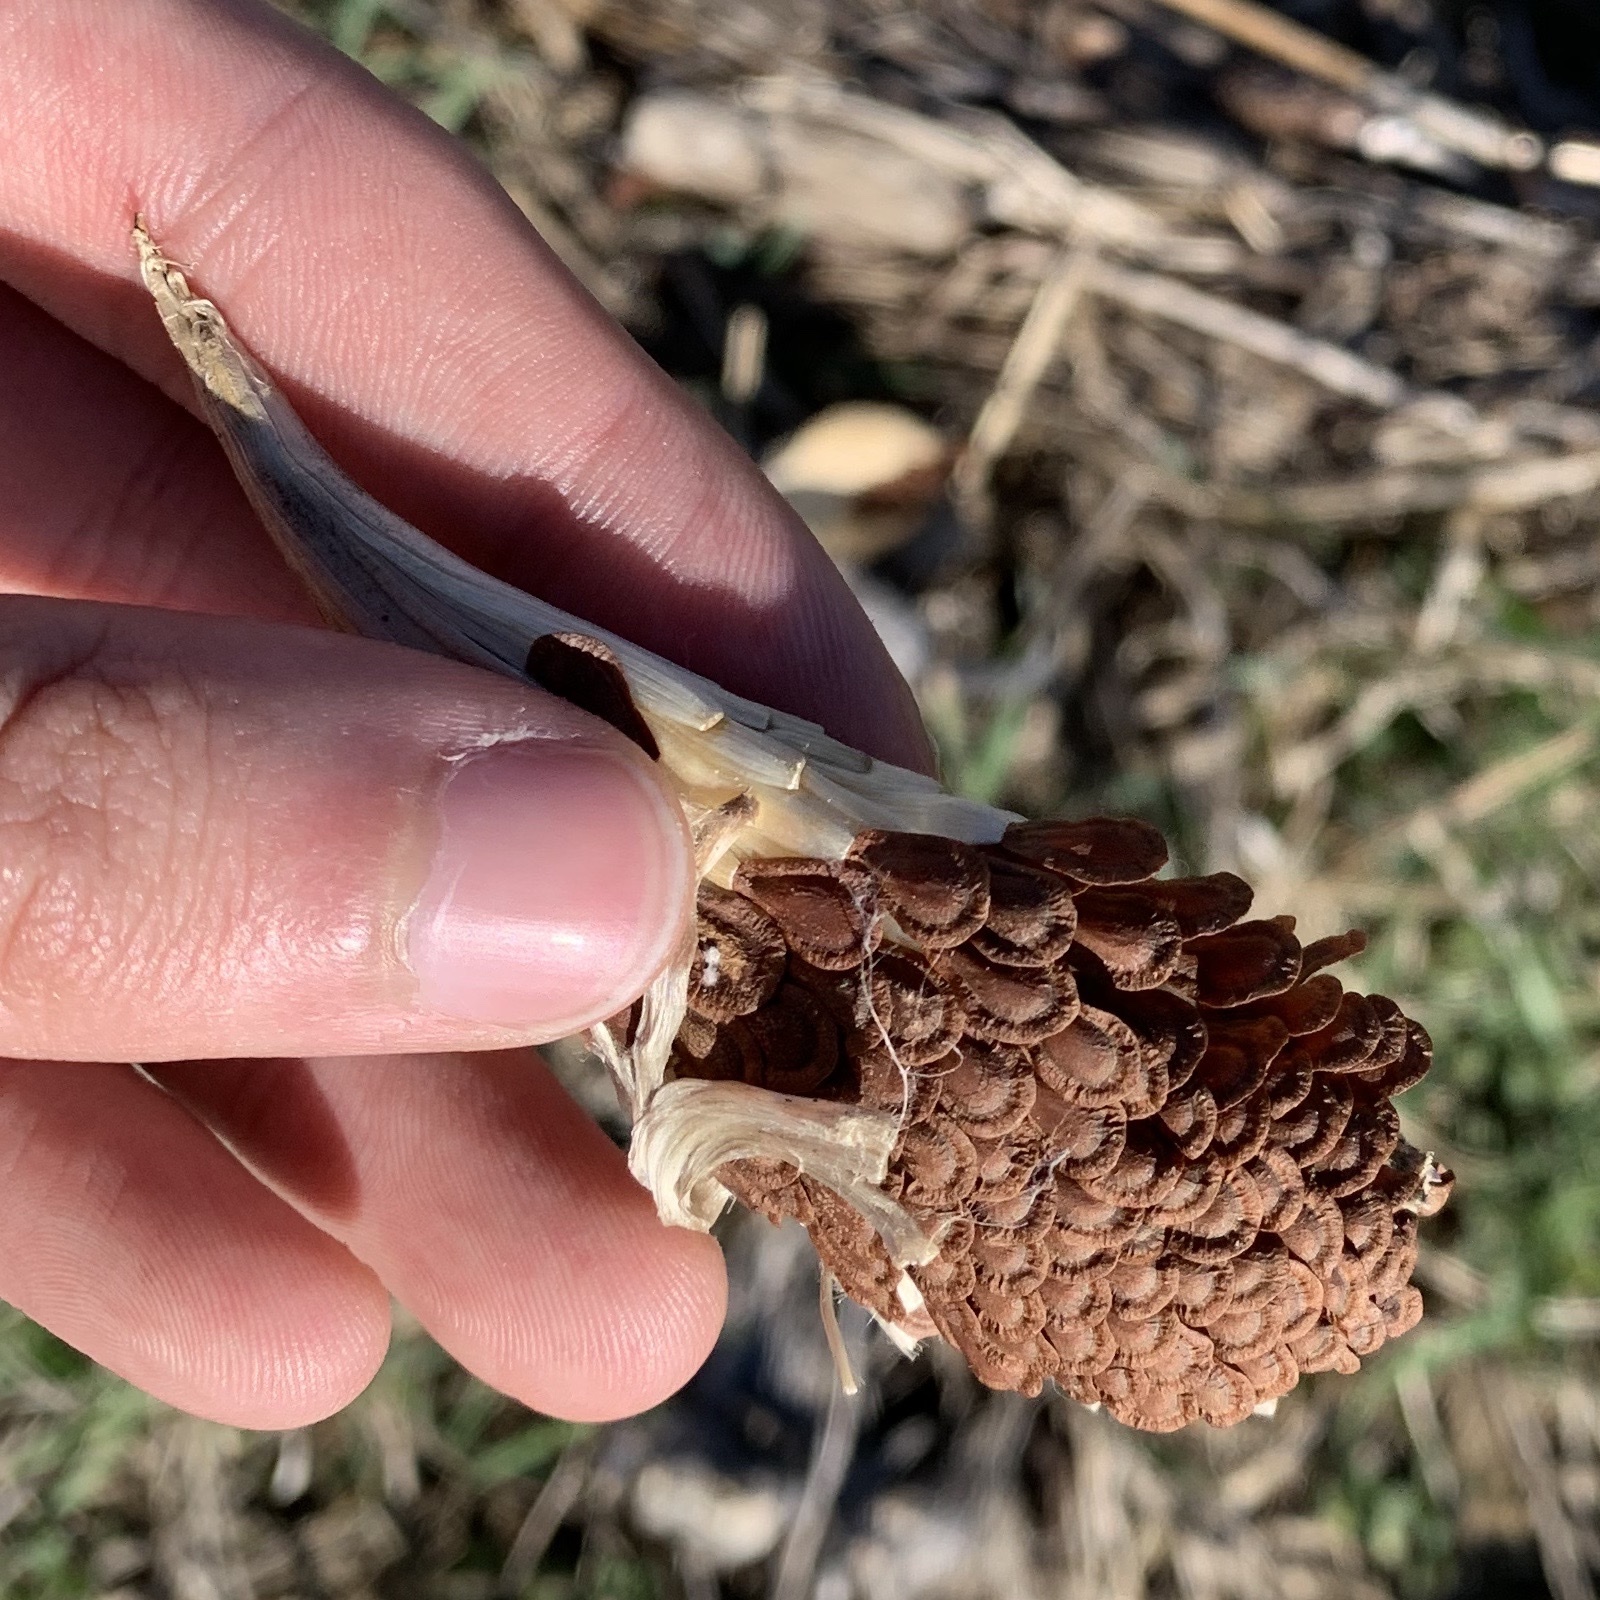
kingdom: Plantae
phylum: Tracheophyta
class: Magnoliopsida
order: Gentianales
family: Apocynaceae
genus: Asclepias
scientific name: Asclepias syriaca
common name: Common milkweed
